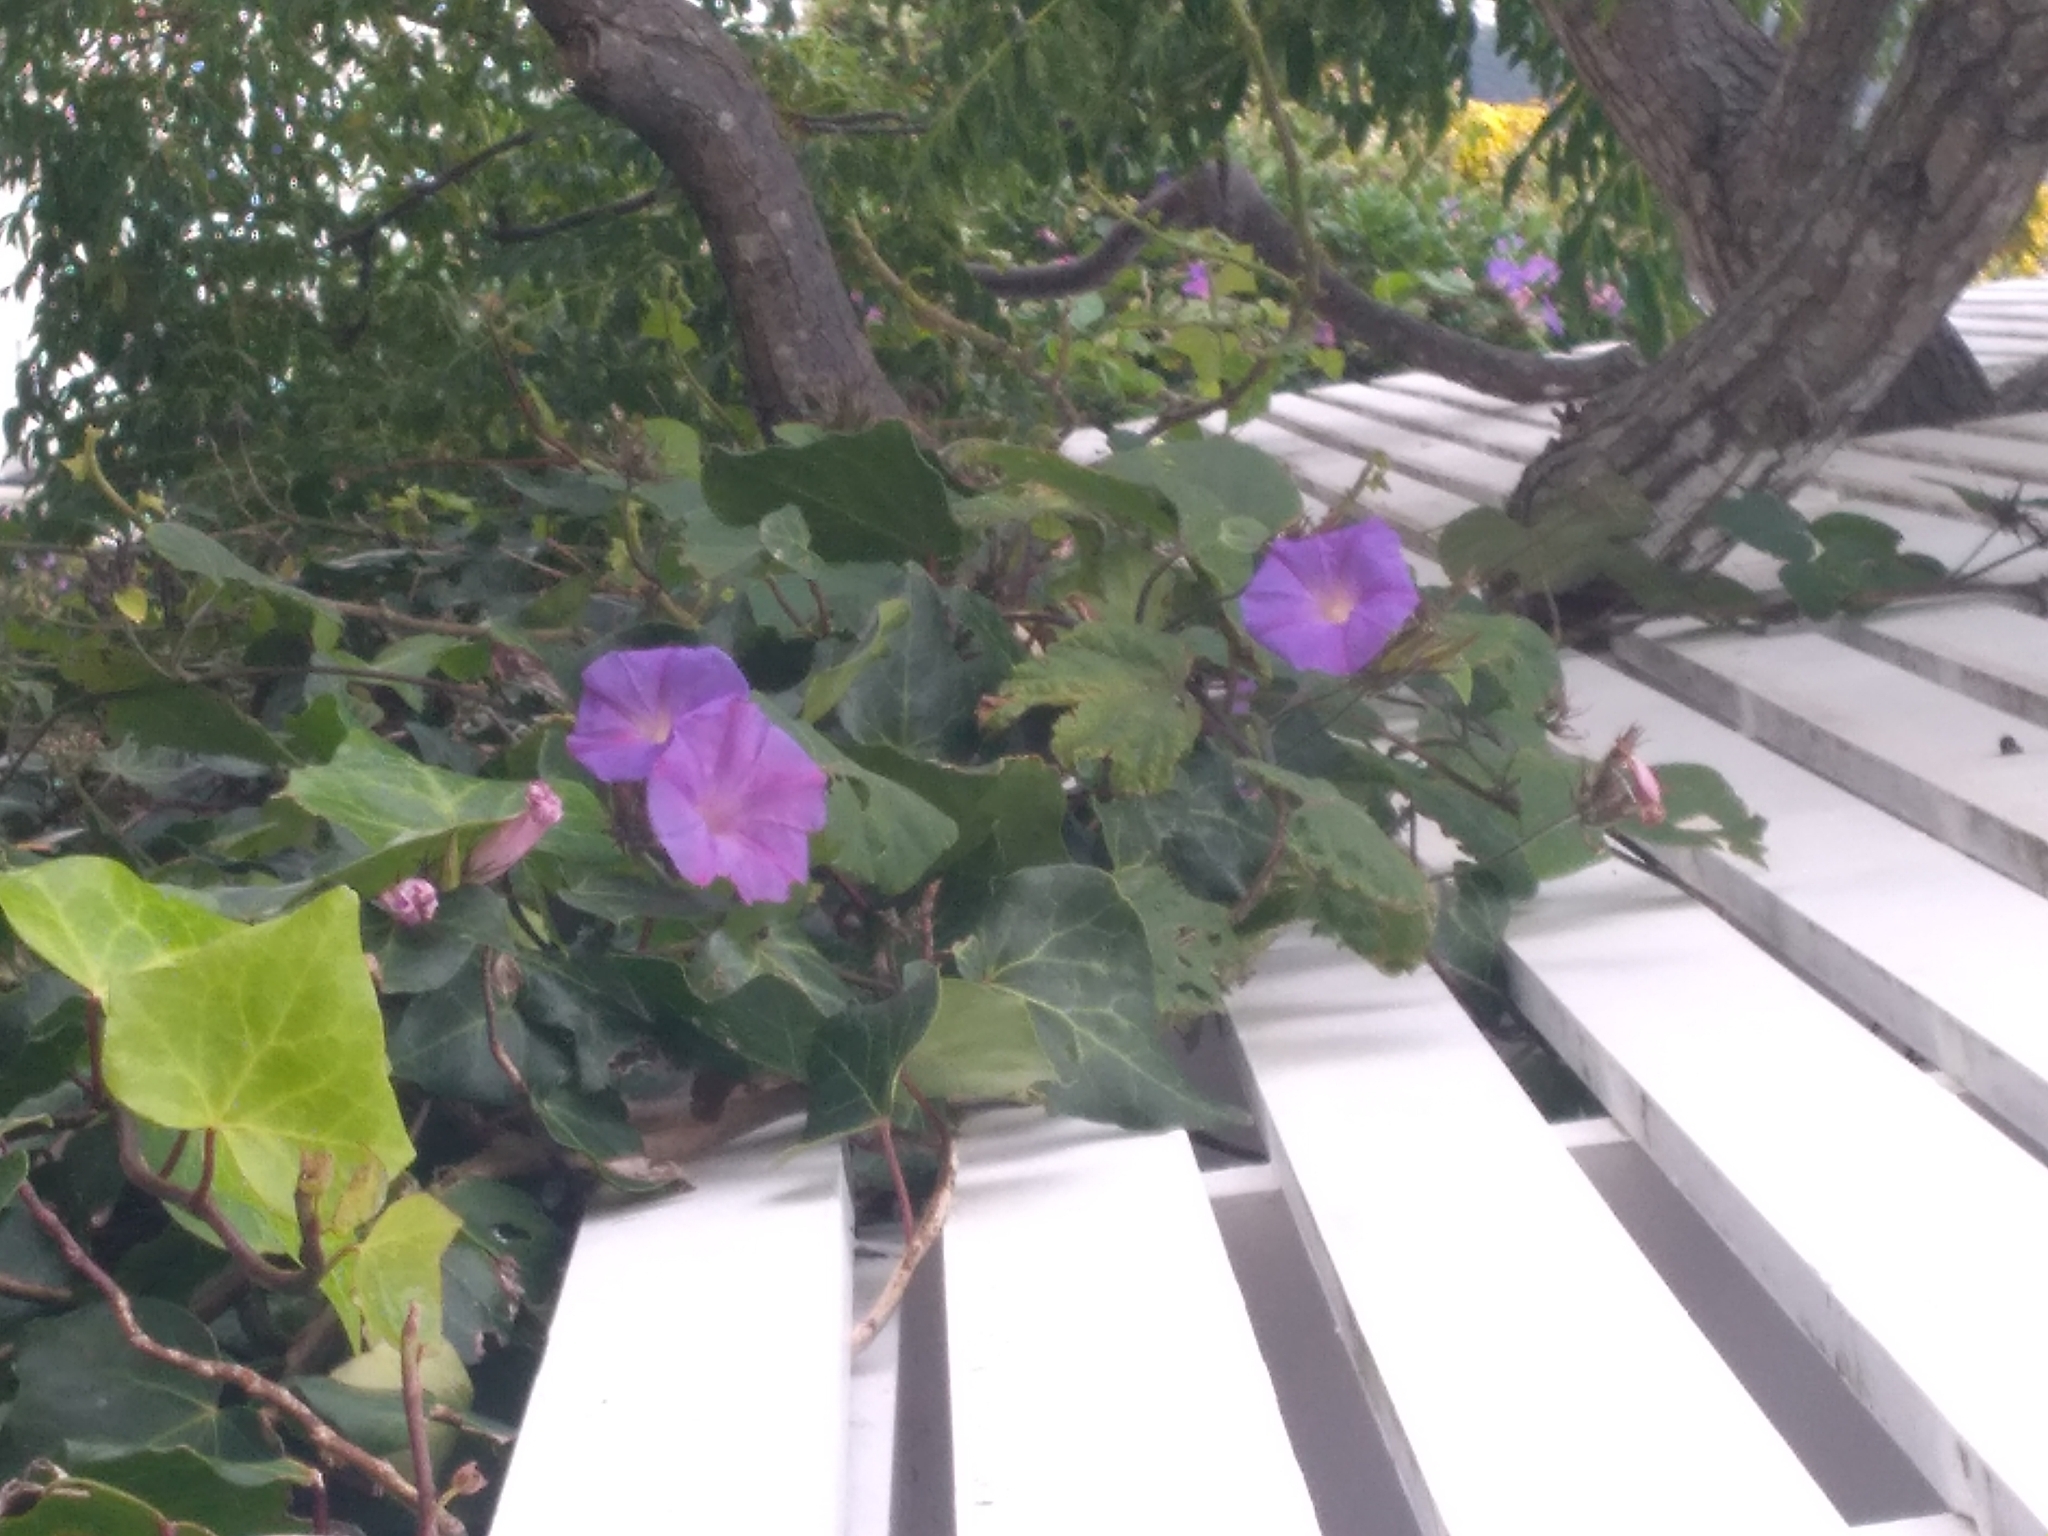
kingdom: Plantae
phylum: Tracheophyta
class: Magnoliopsida
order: Solanales
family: Convolvulaceae
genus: Ipomoea
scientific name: Ipomoea indica
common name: Blue dawnflower
